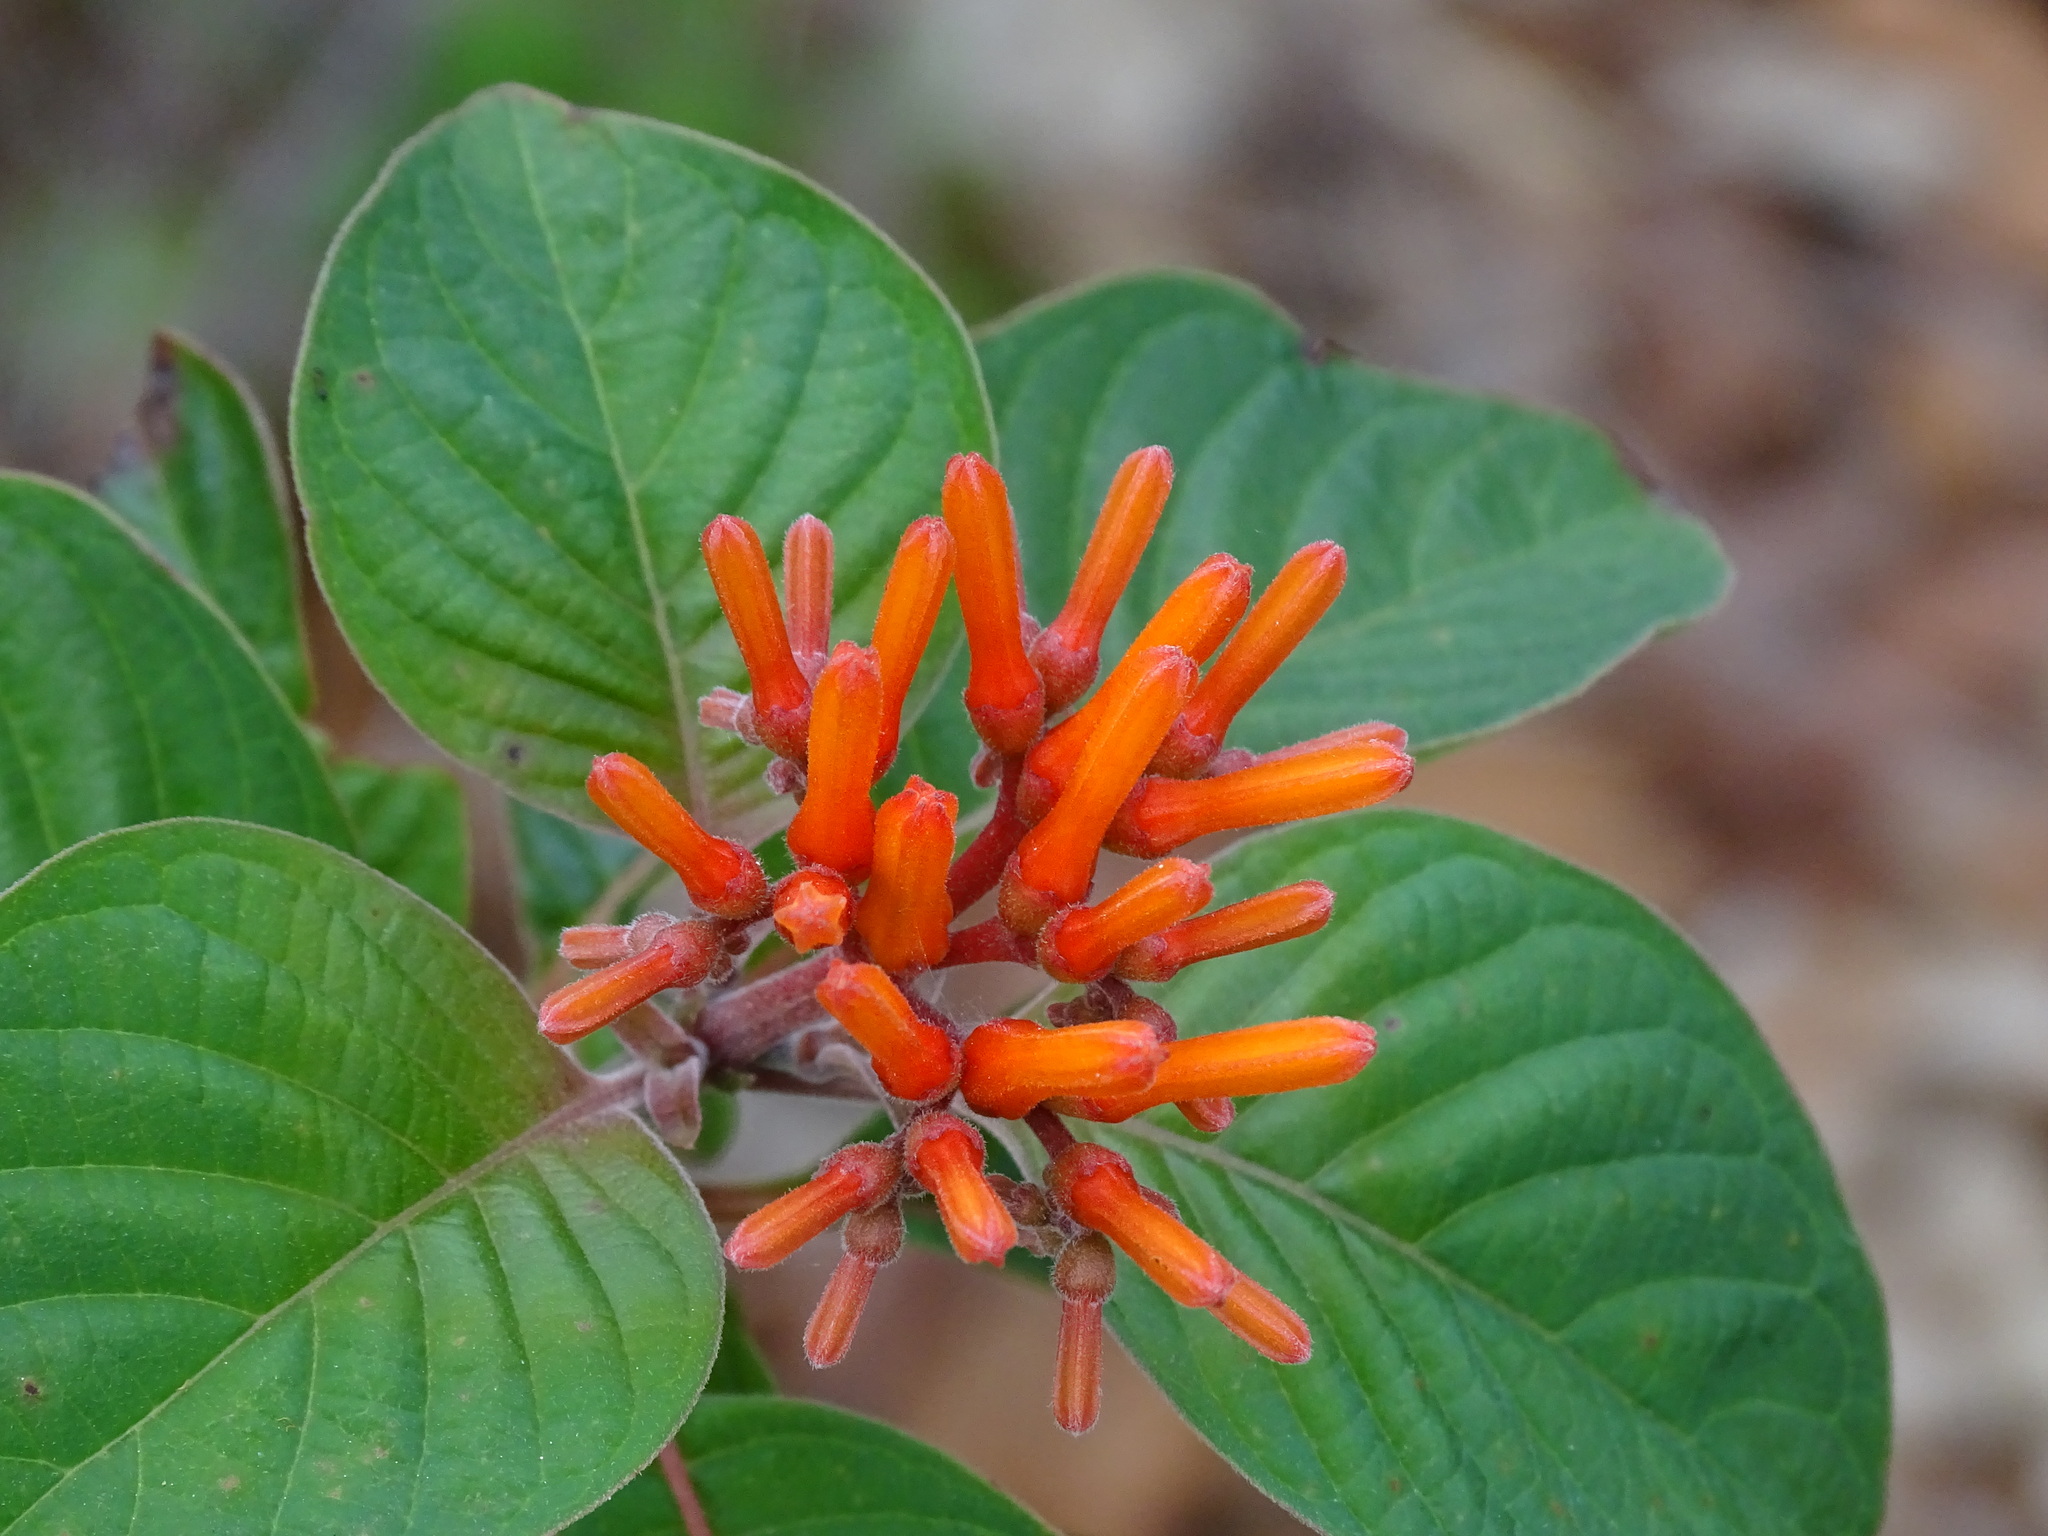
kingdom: Plantae
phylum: Tracheophyta
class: Magnoliopsida
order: Gentianales
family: Rubiaceae
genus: Hamelia
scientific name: Hamelia patens
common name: Redhead
